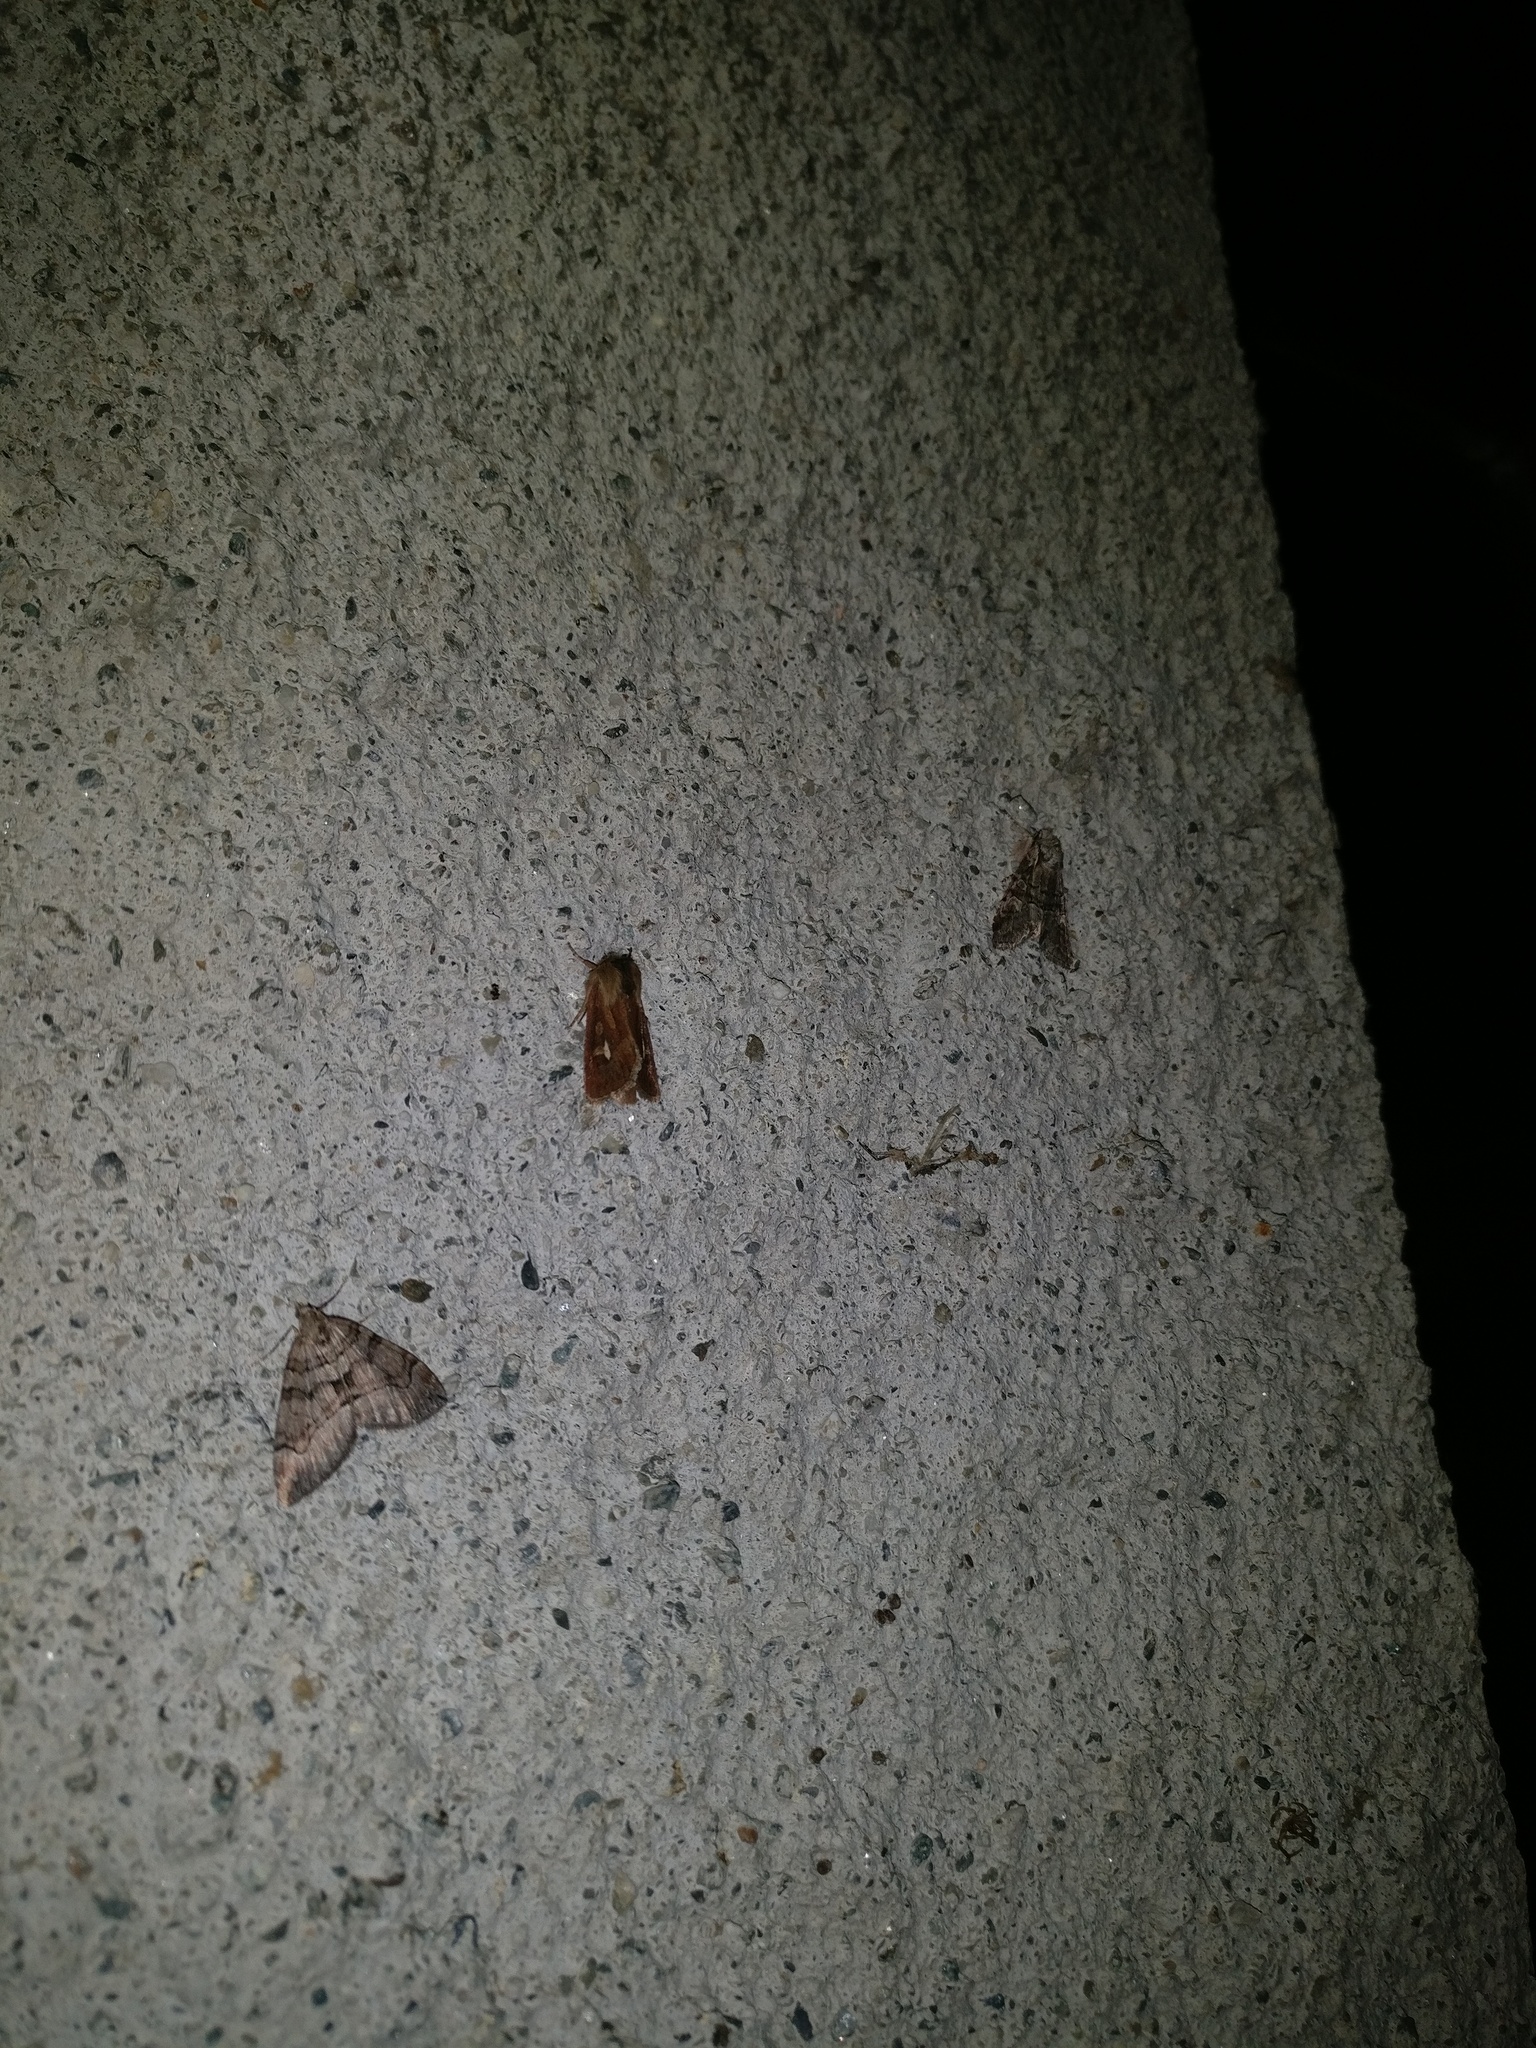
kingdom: Animalia
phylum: Arthropoda
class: Insecta
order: Lepidoptera
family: Noctuidae
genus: Lasionycta
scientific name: Lasionycta proxima
